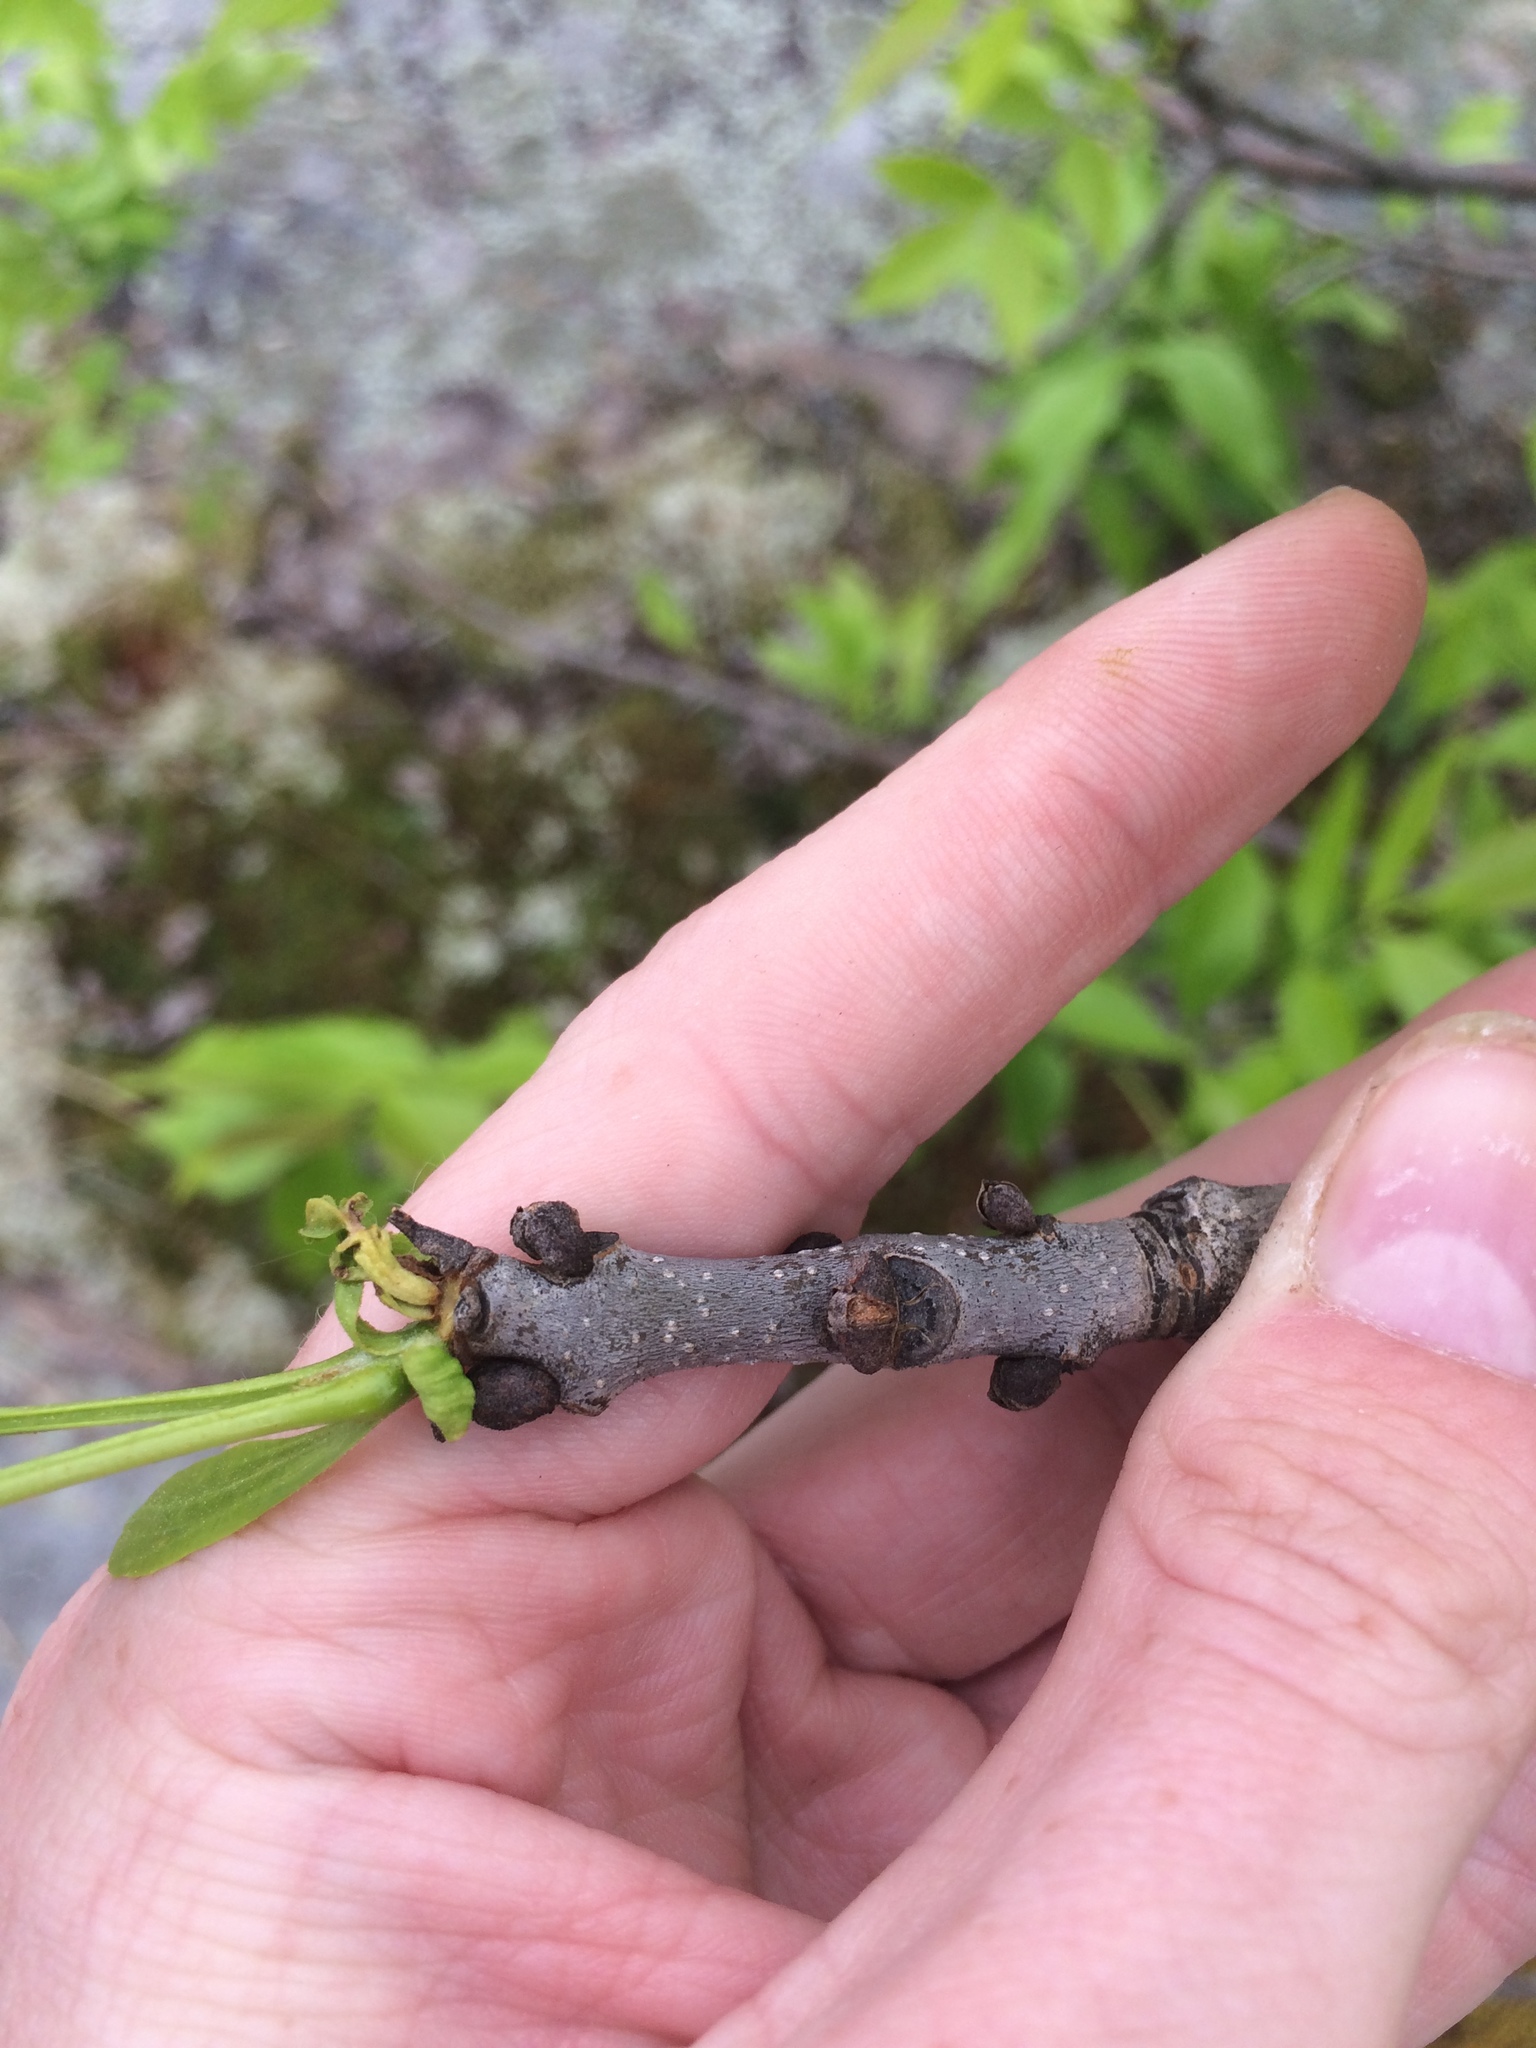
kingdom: Plantae
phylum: Tracheophyta
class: Magnoliopsida
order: Lamiales
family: Oleaceae
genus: Fraxinus
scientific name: Fraxinus pennsylvanica
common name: Green ash
